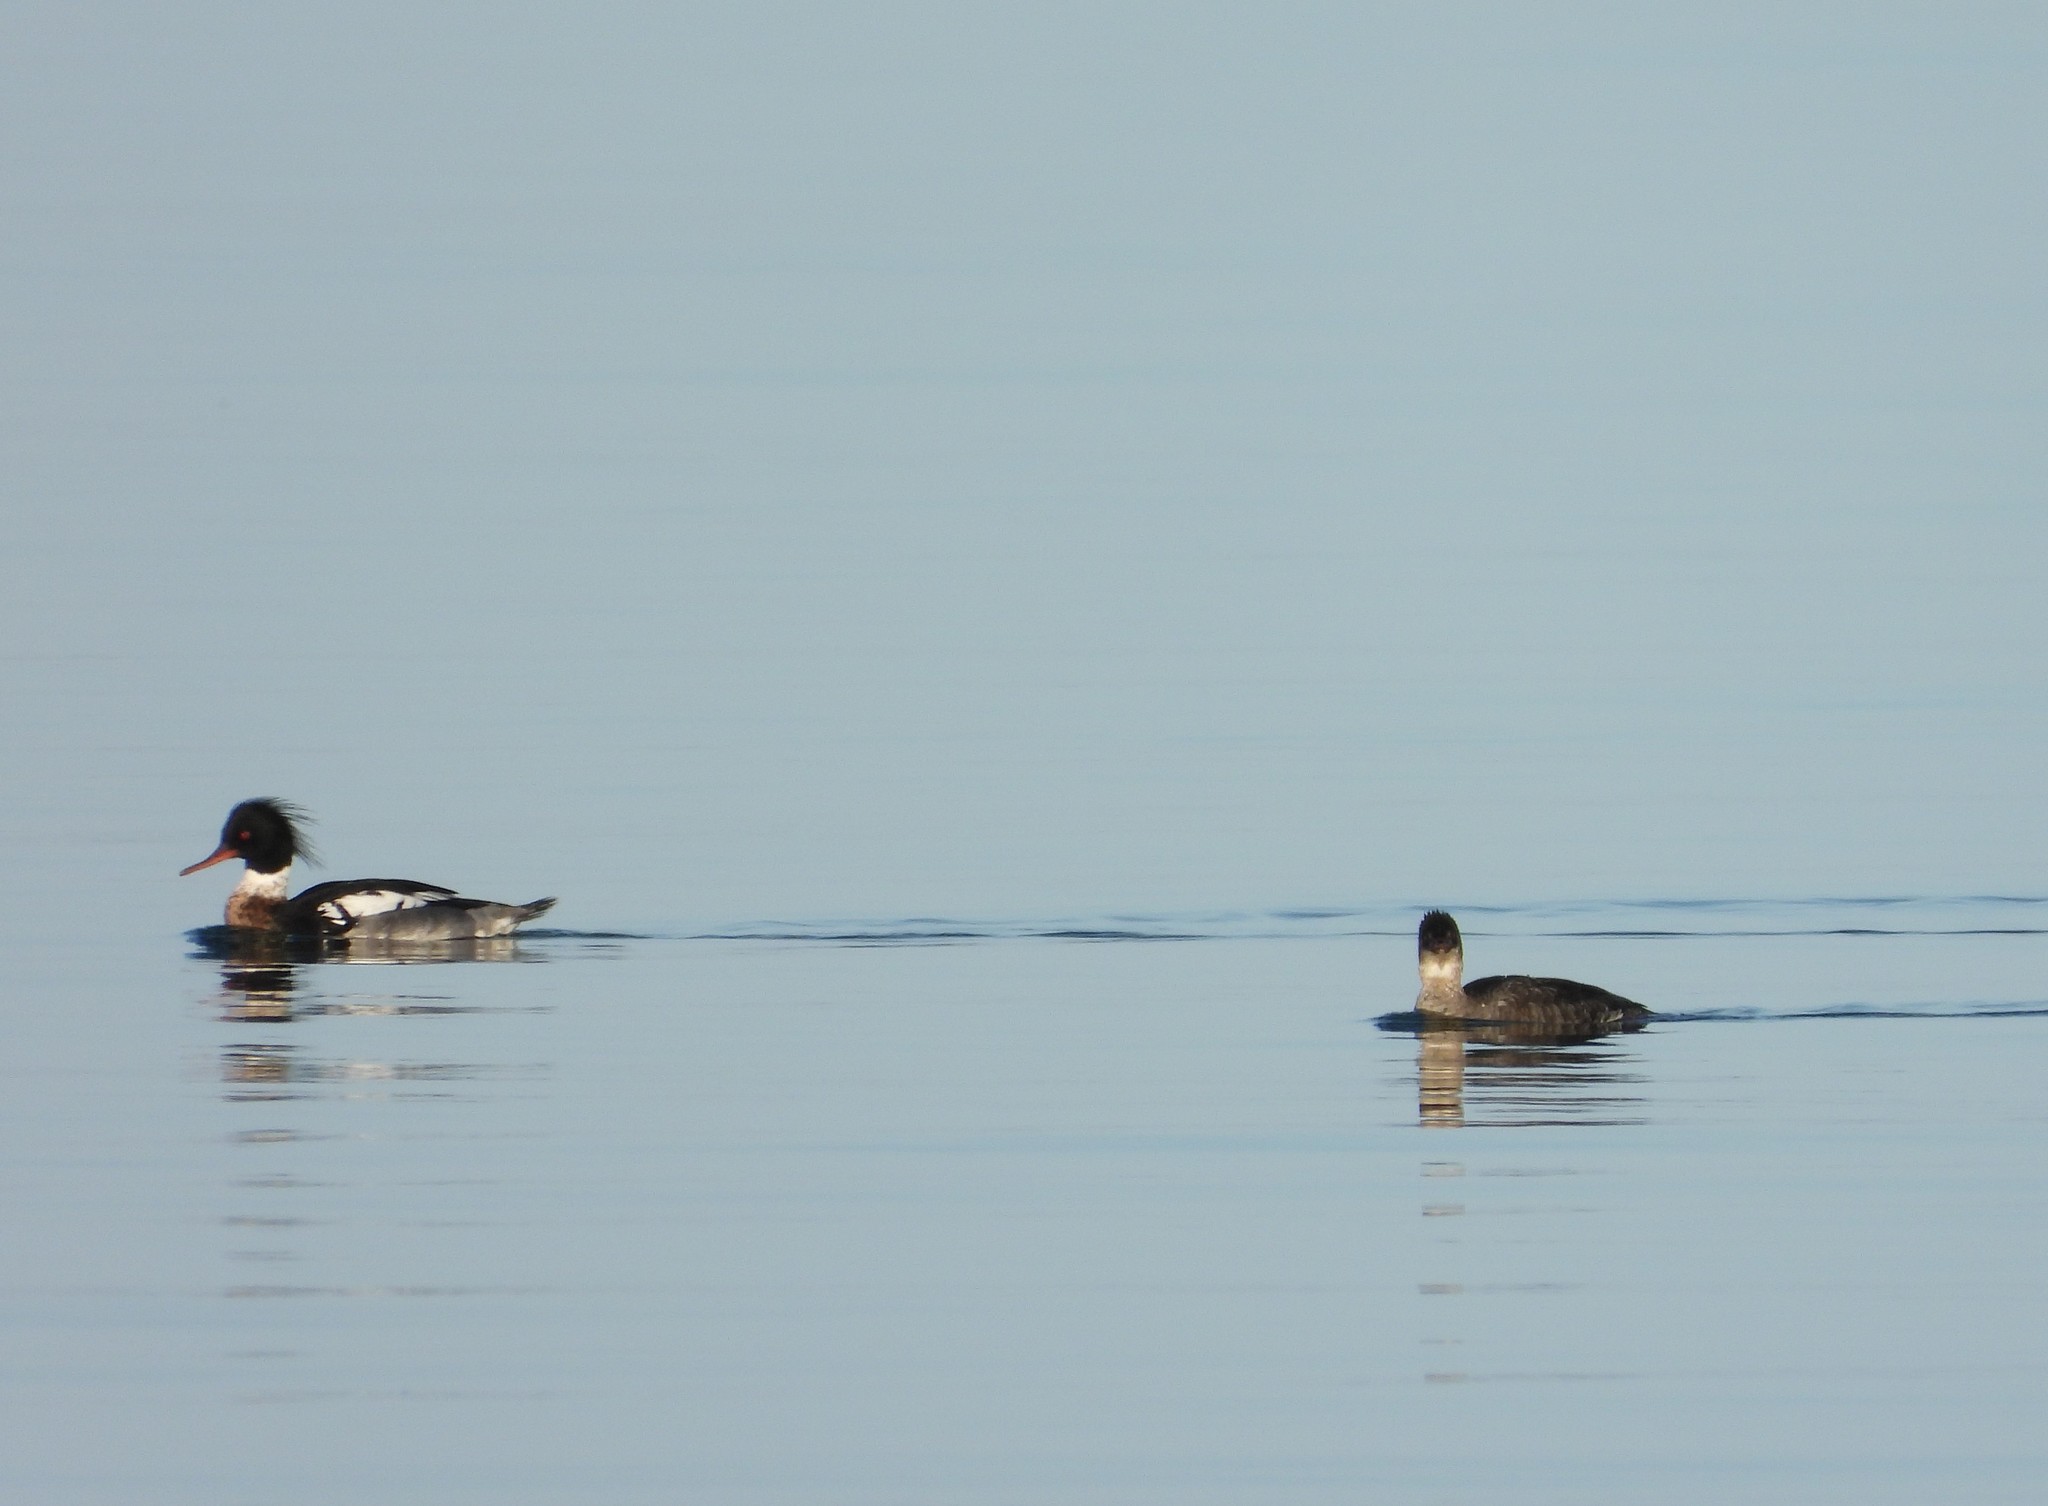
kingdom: Animalia
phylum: Chordata
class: Aves
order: Anseriformes
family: Anatidae
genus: Mergus
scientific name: Mergus serrator
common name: Red-breasted merganser
